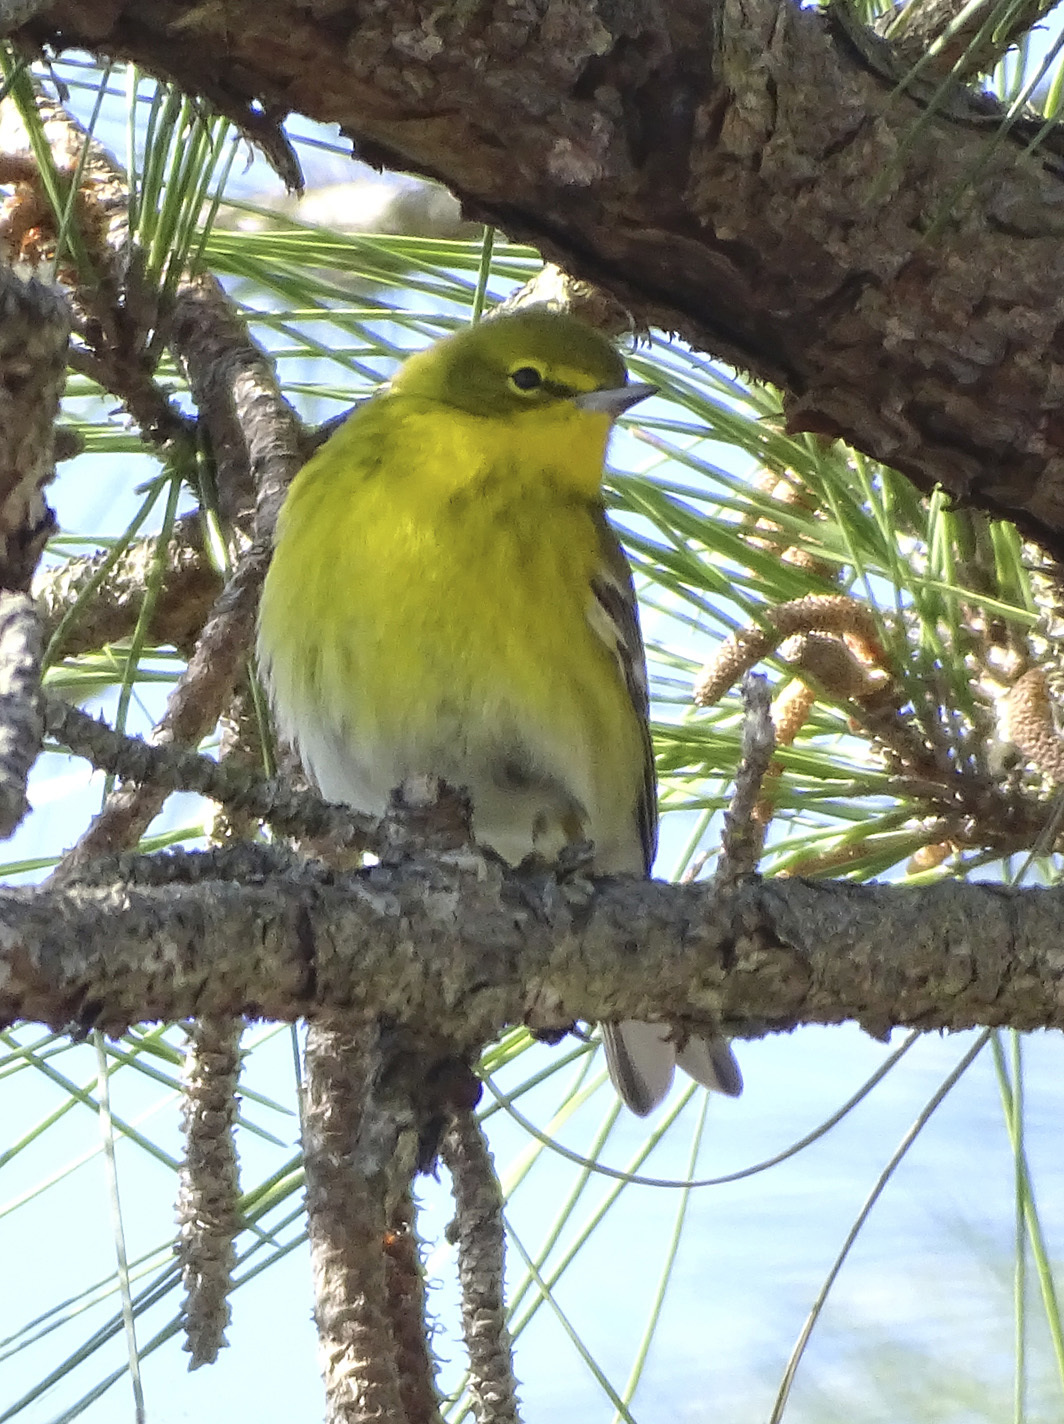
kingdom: Animalia
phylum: Chordata
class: Aves
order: Passeriformes
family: Parulidae
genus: Setophaga
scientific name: Setophaga pinus
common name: Pine warbler
